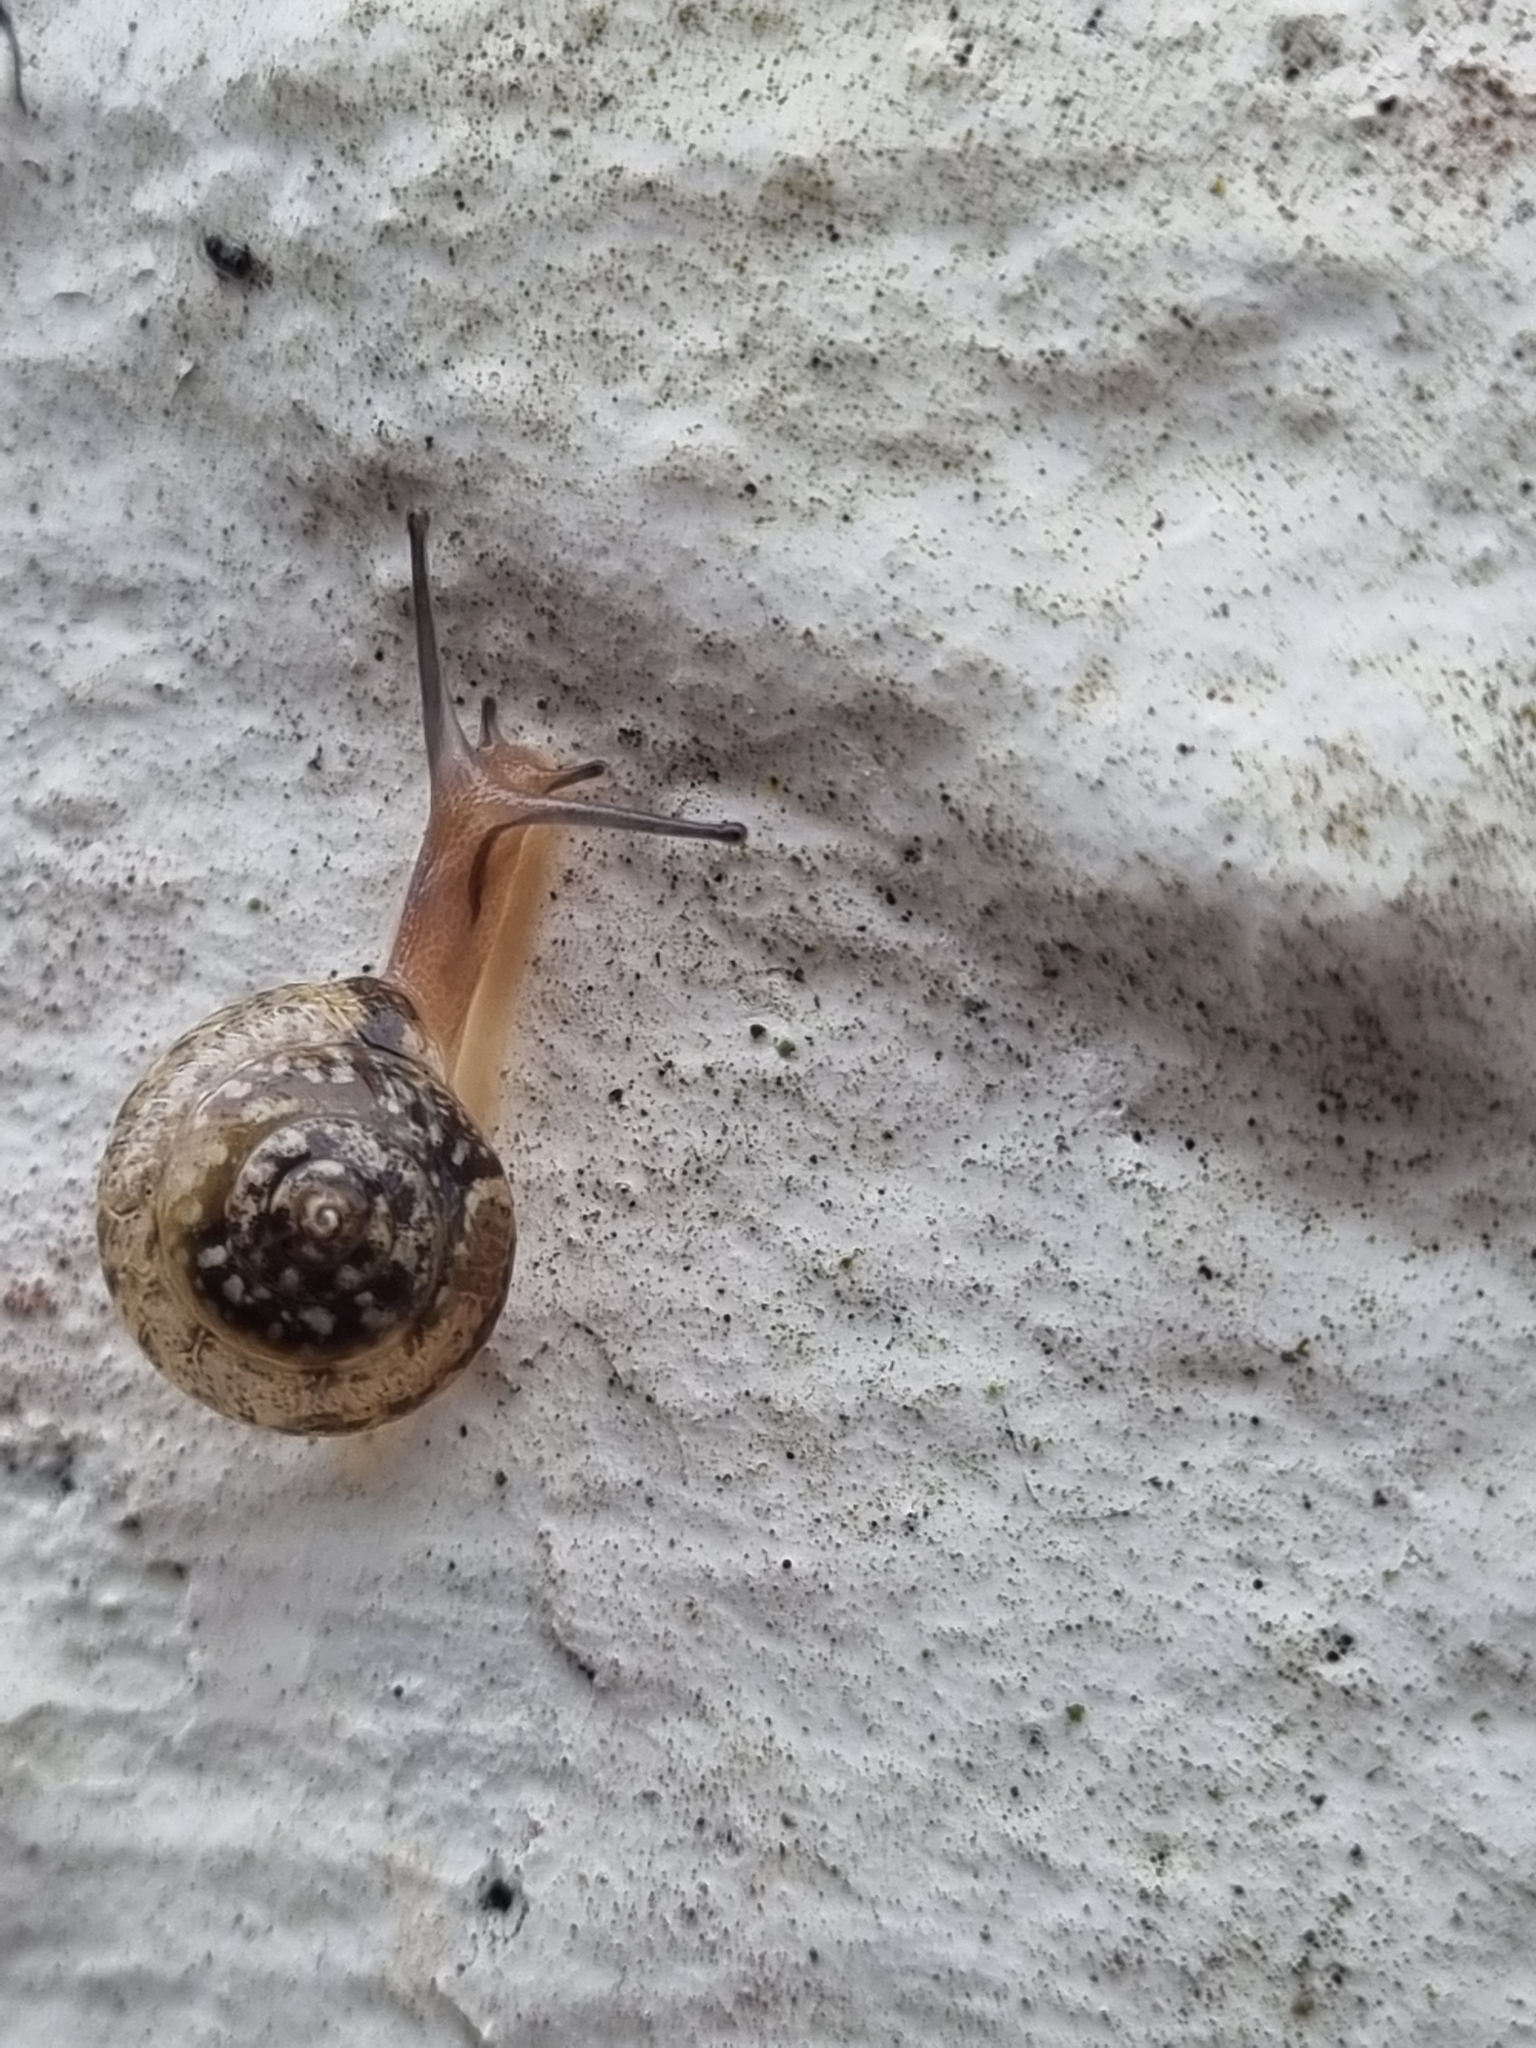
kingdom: Animalia
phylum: Mollusca
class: Gastropoda
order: Stylommatophora
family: Hygromiidae
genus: Hygromia
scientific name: Hygromia cinctella
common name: Girdled snail
